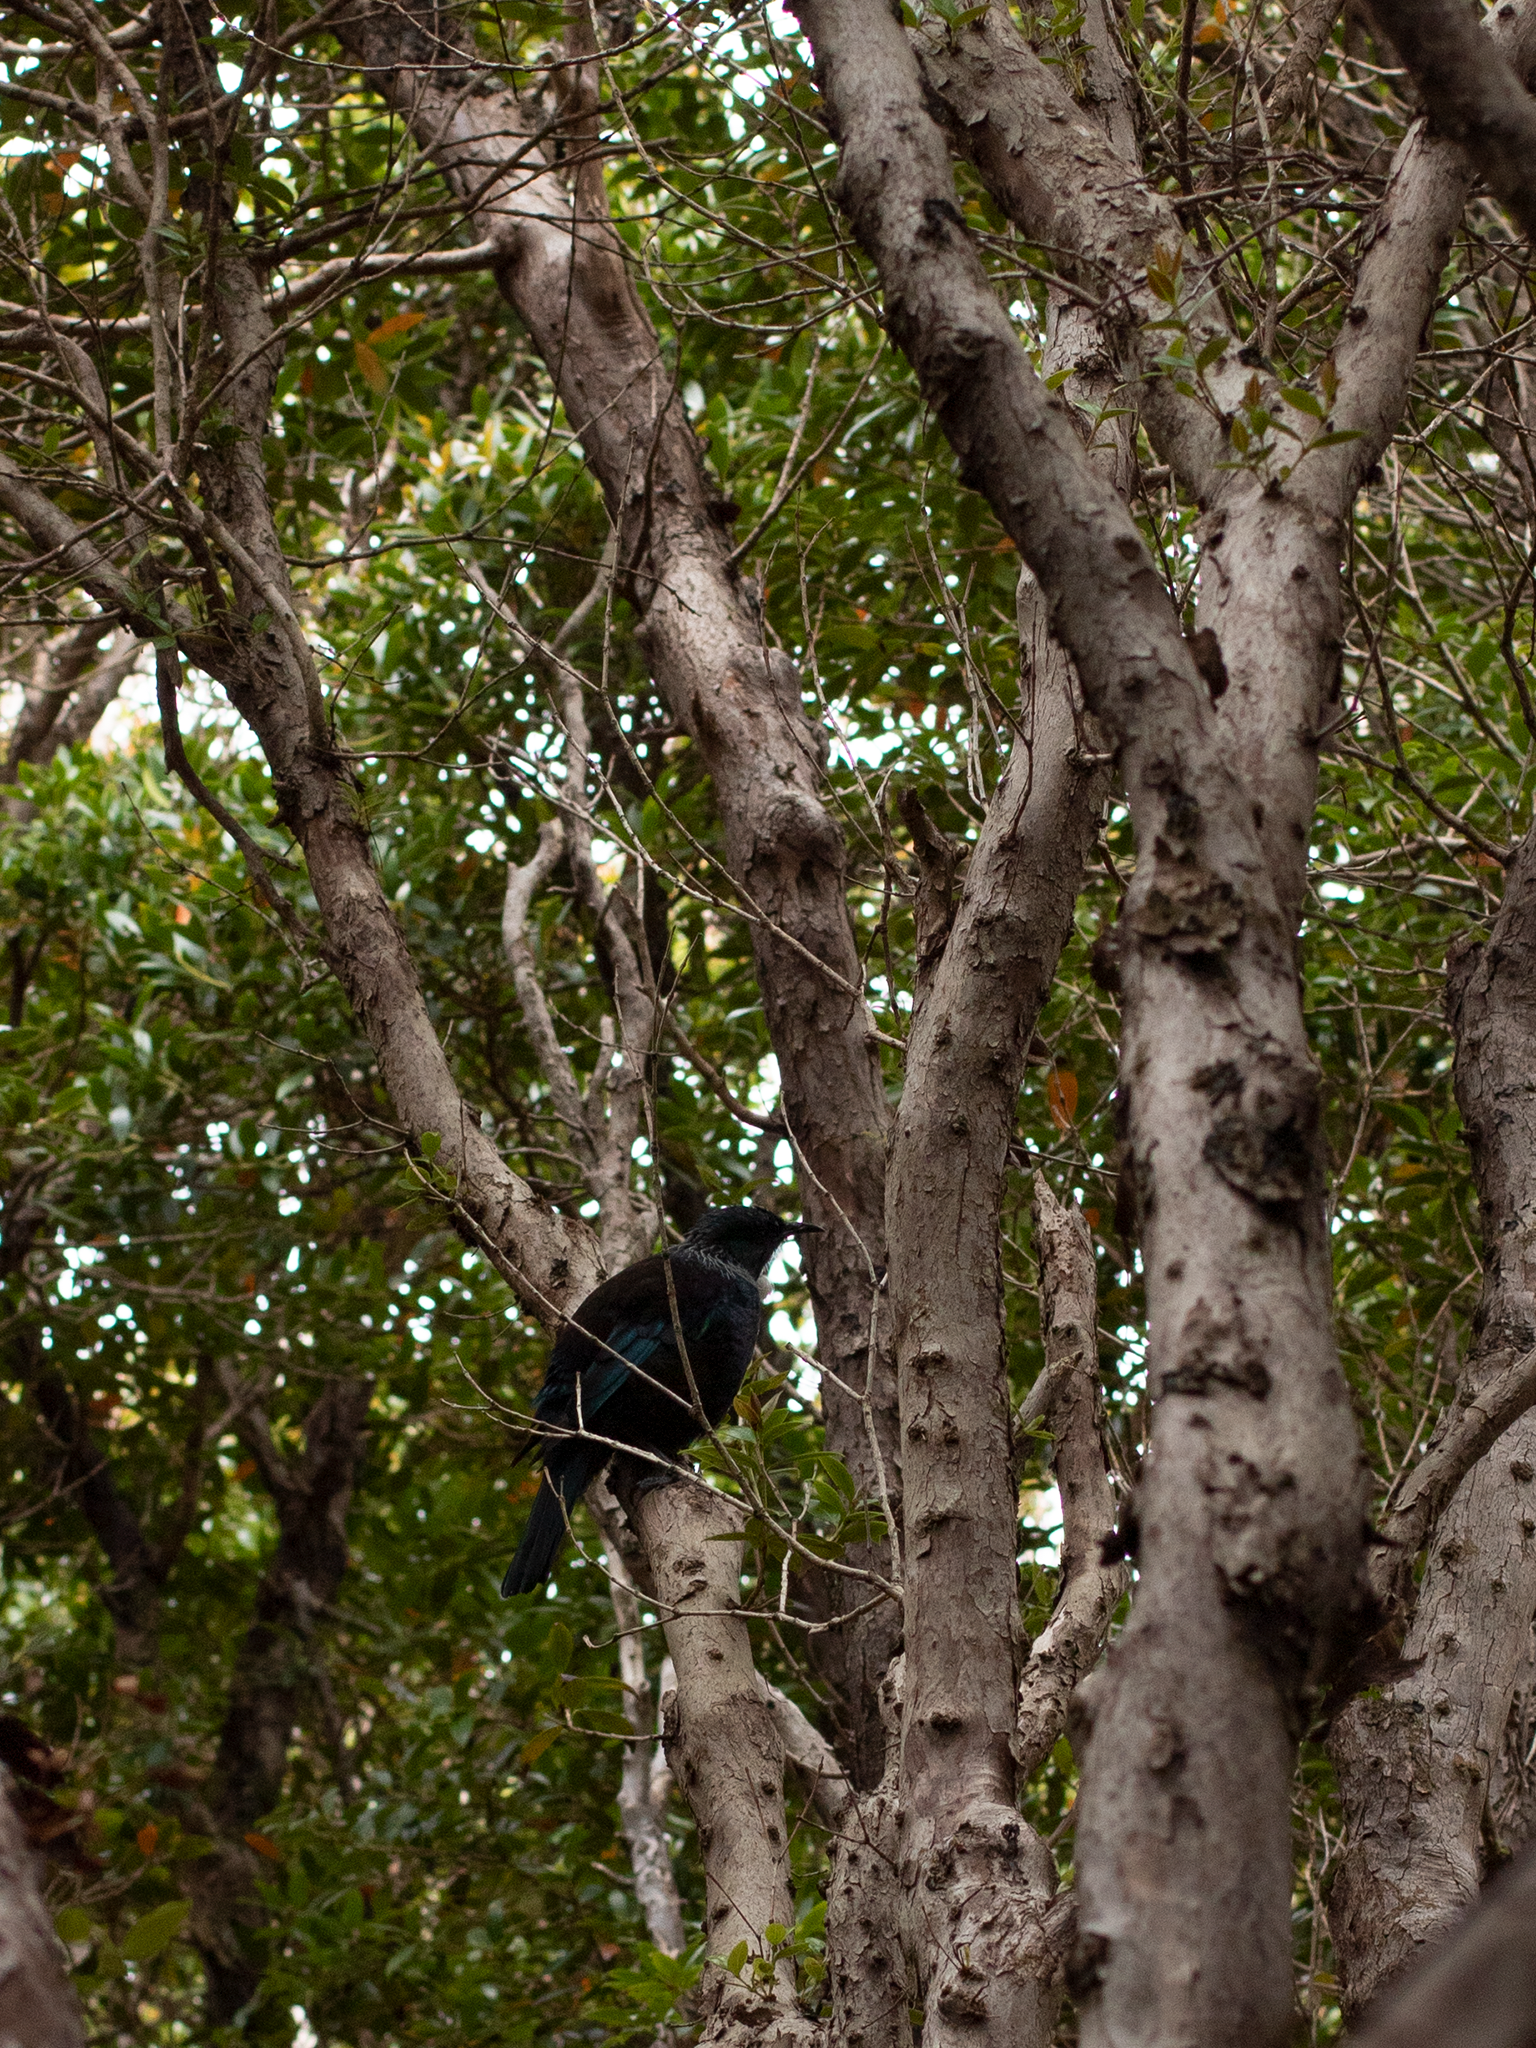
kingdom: Animalia
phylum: Chordata
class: Aves
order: Passeriformes
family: Meliphagidae
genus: Prosthemadera
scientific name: Prosthemadera novaeseelandiae
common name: Tui
